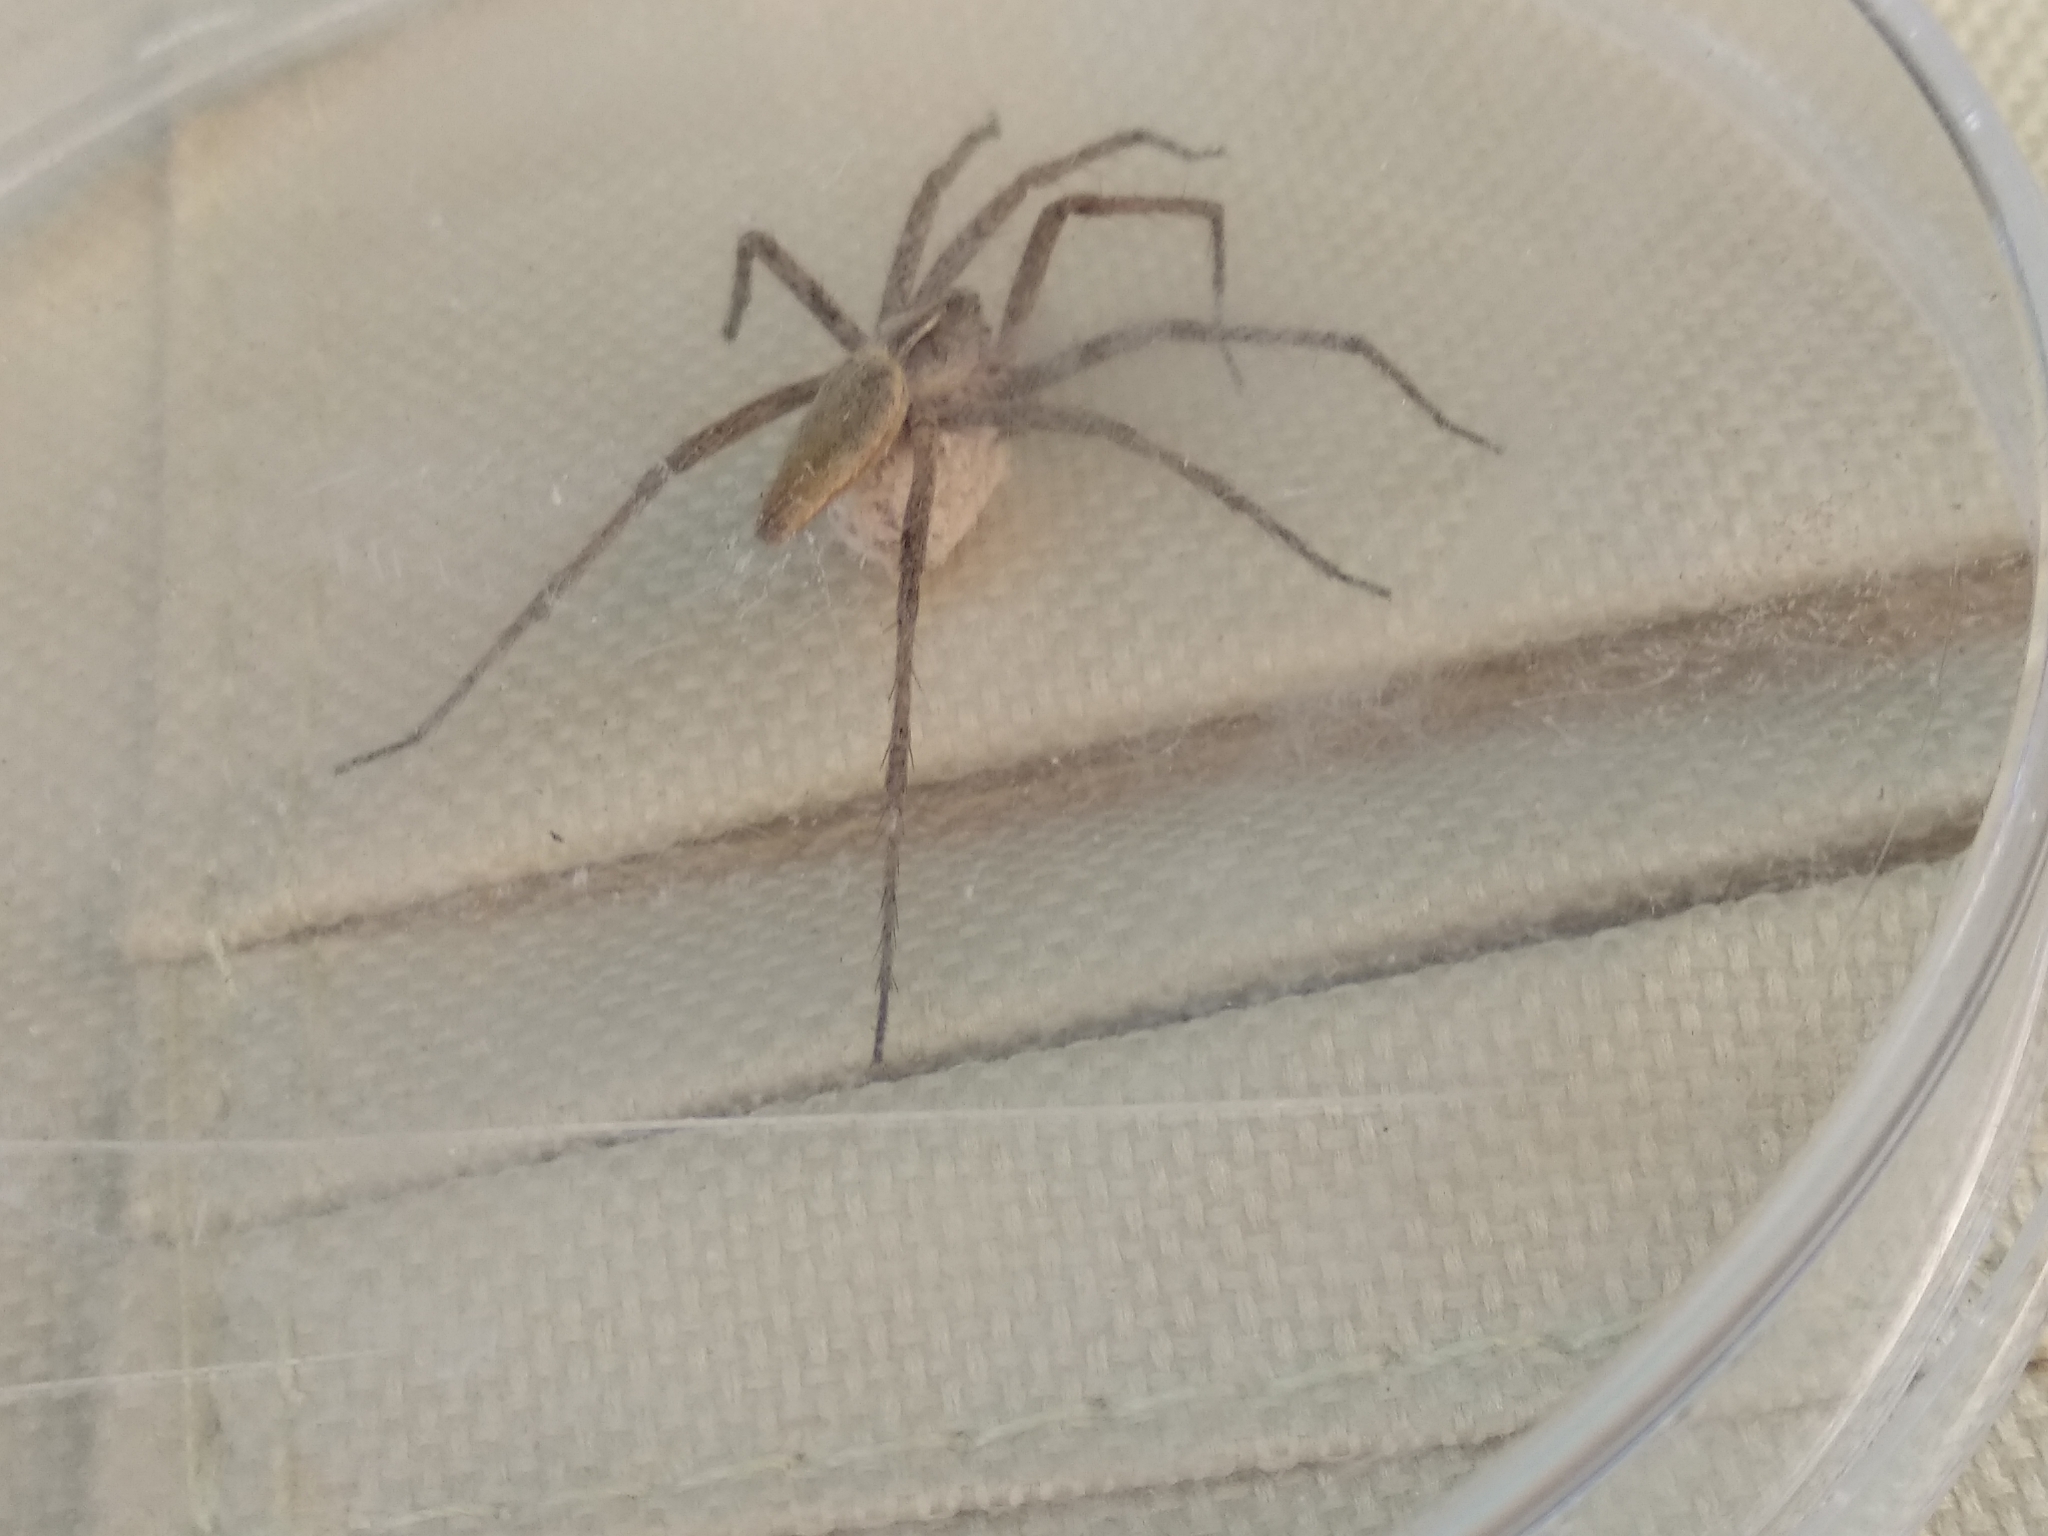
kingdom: Animalia
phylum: Arthropoda
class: Arachnida
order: Araneae
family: Pisauridae
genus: Pisaura
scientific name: Pisaura mirabilis
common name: Tent spider
